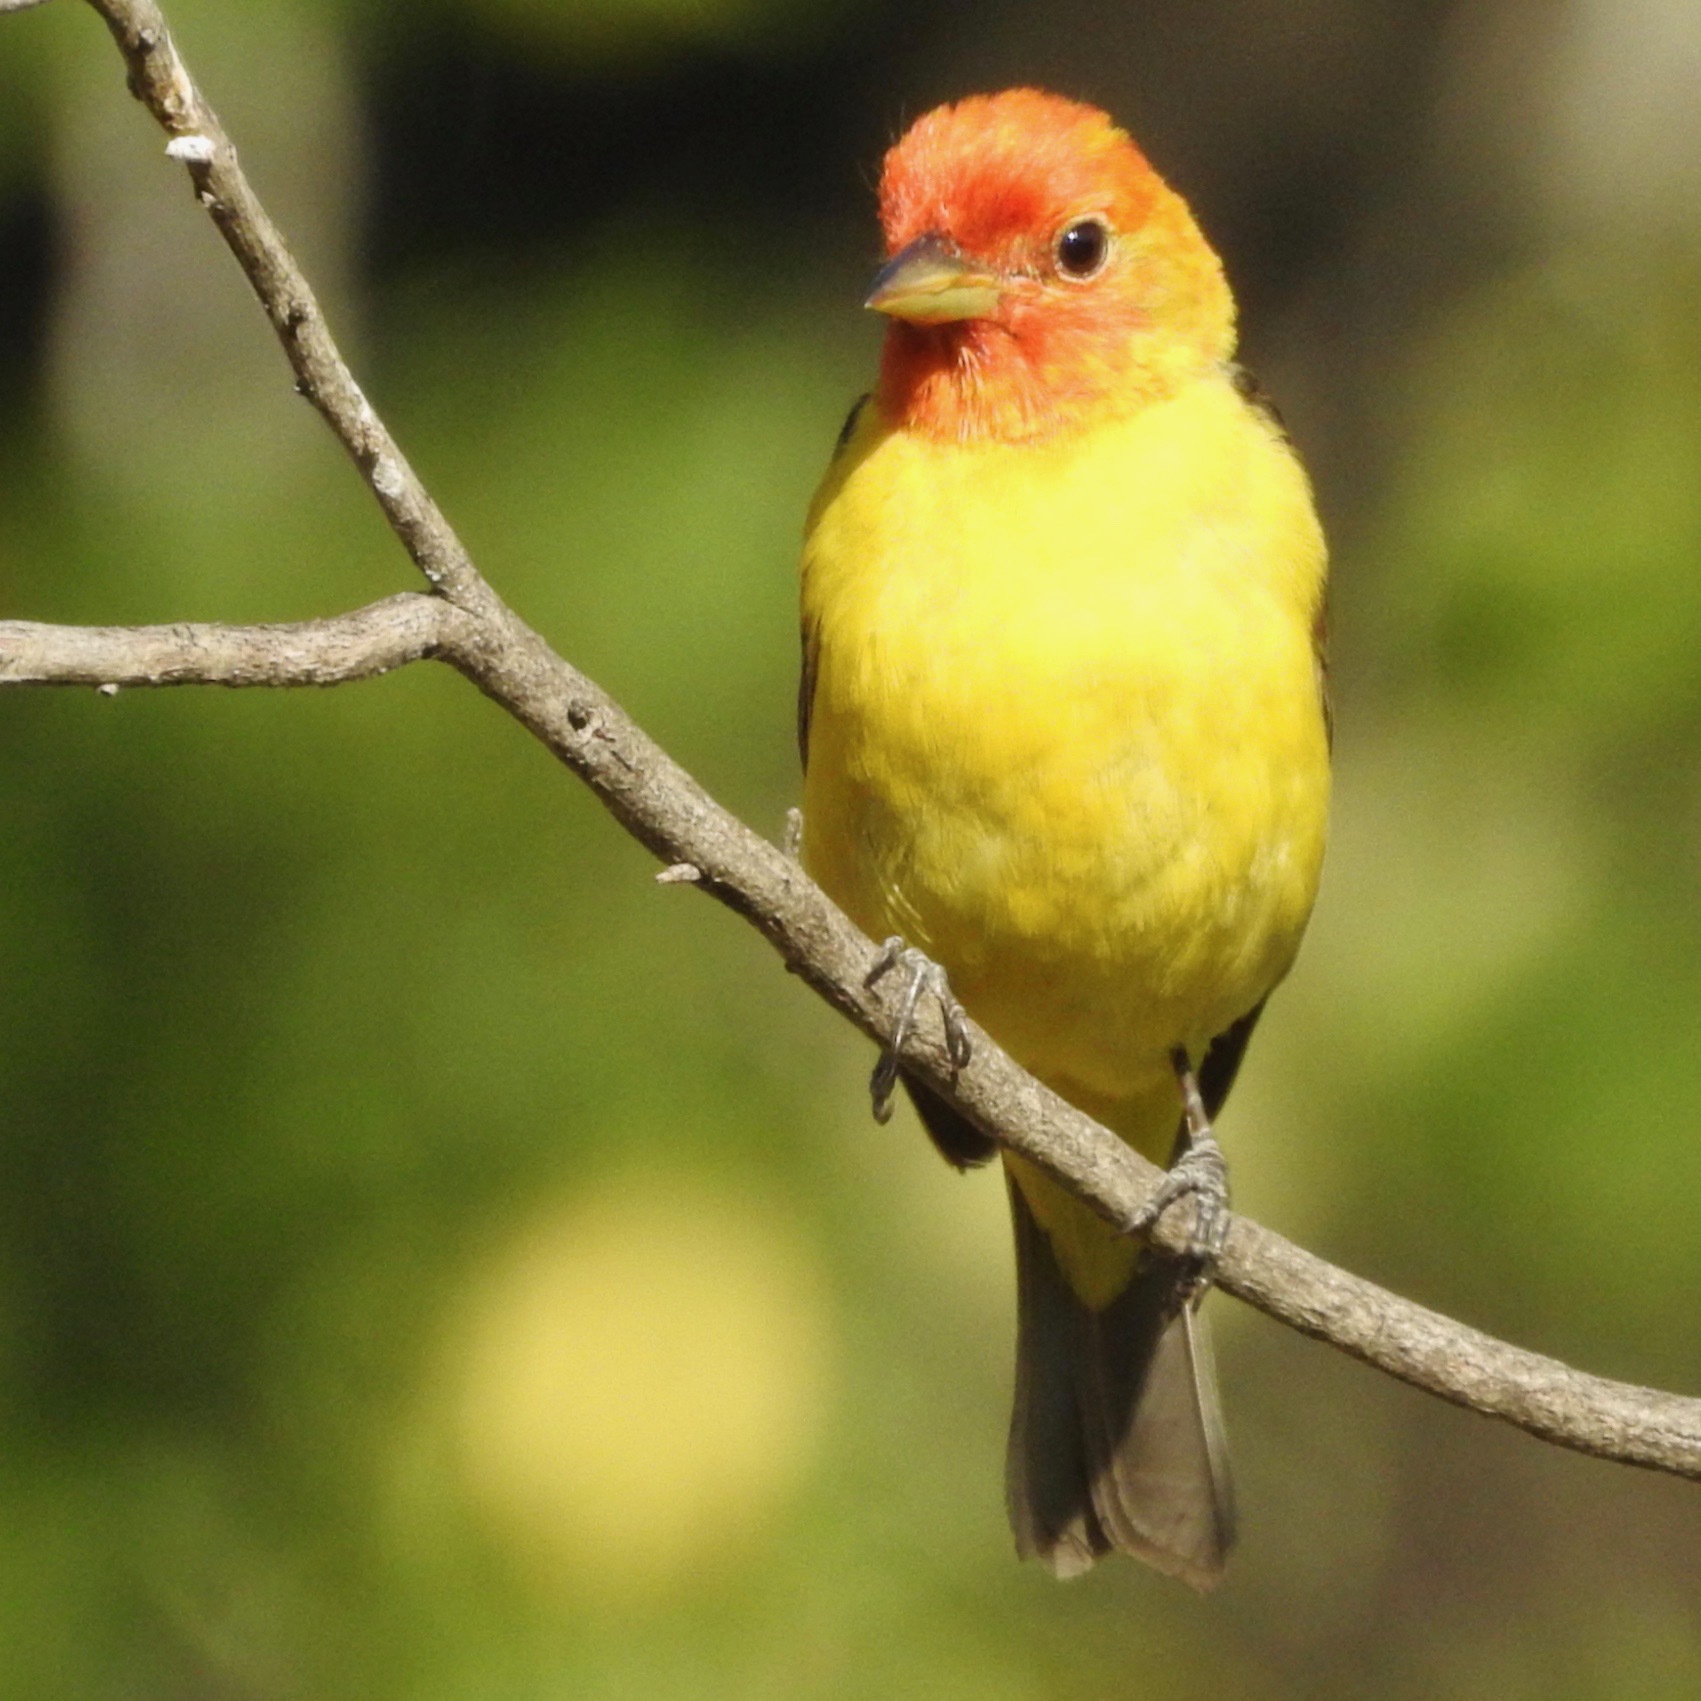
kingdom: Animalia
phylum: Chordata
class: Aves
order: Passeriformes
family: Cardinalidae
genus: Piranga
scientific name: Piranga ludoviciana
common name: Western tanager
